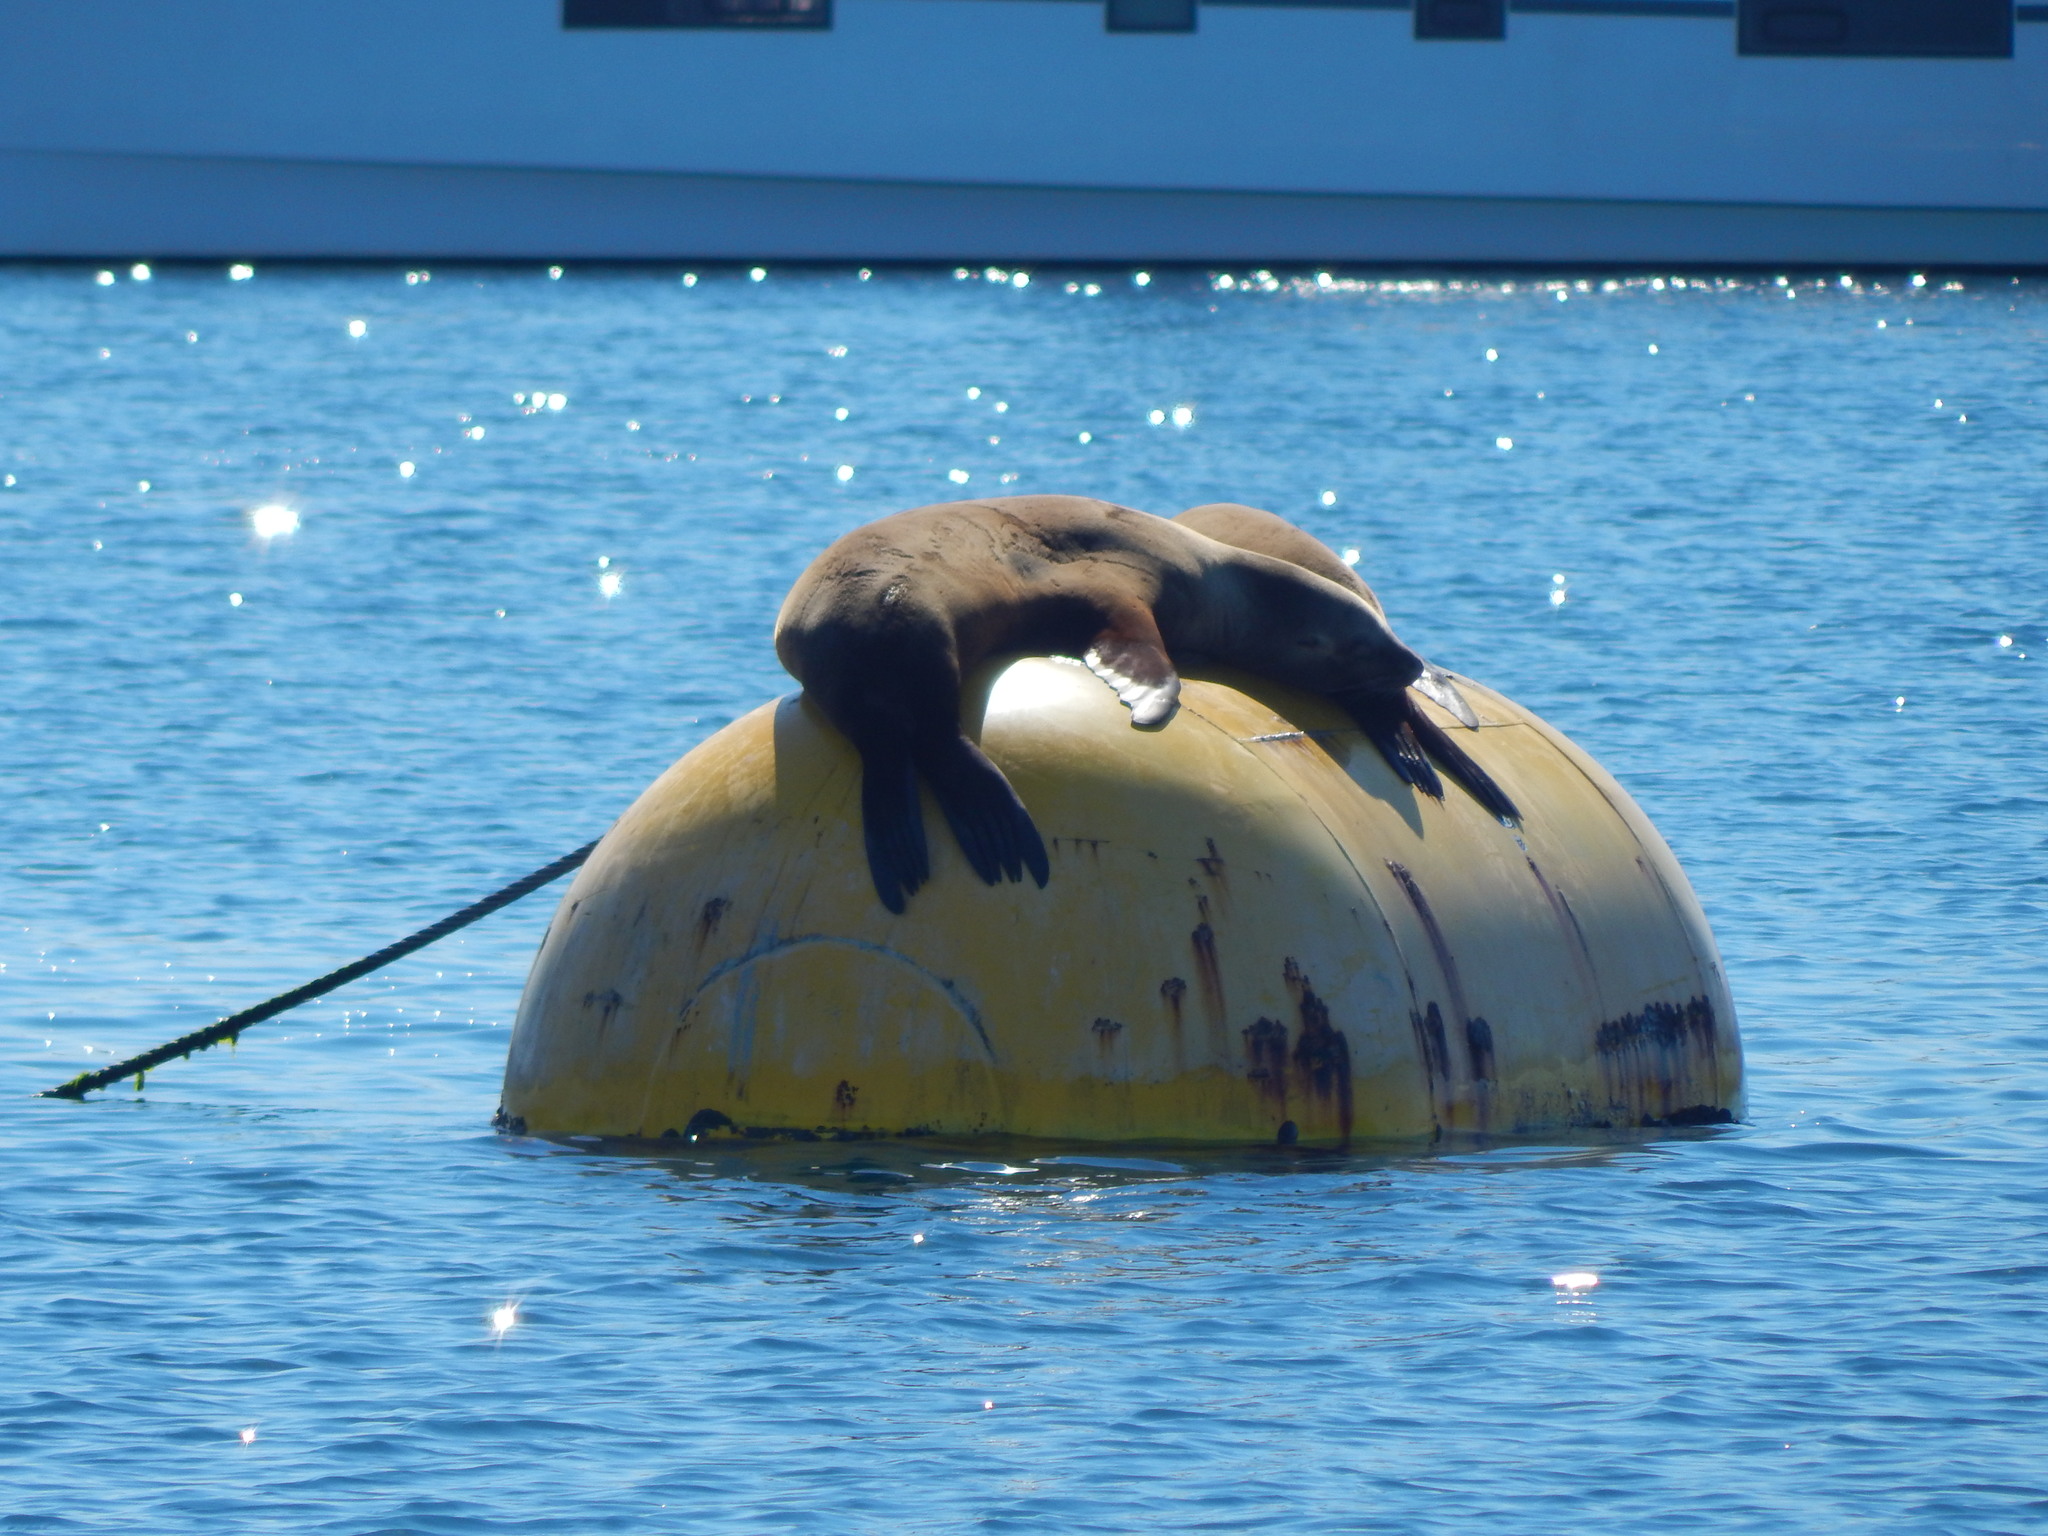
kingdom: Animalia
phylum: Chordata
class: Mammalia
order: Carnivora
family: Otariidae
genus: Zalophus
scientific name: Zalophus californianus
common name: California sea lion
